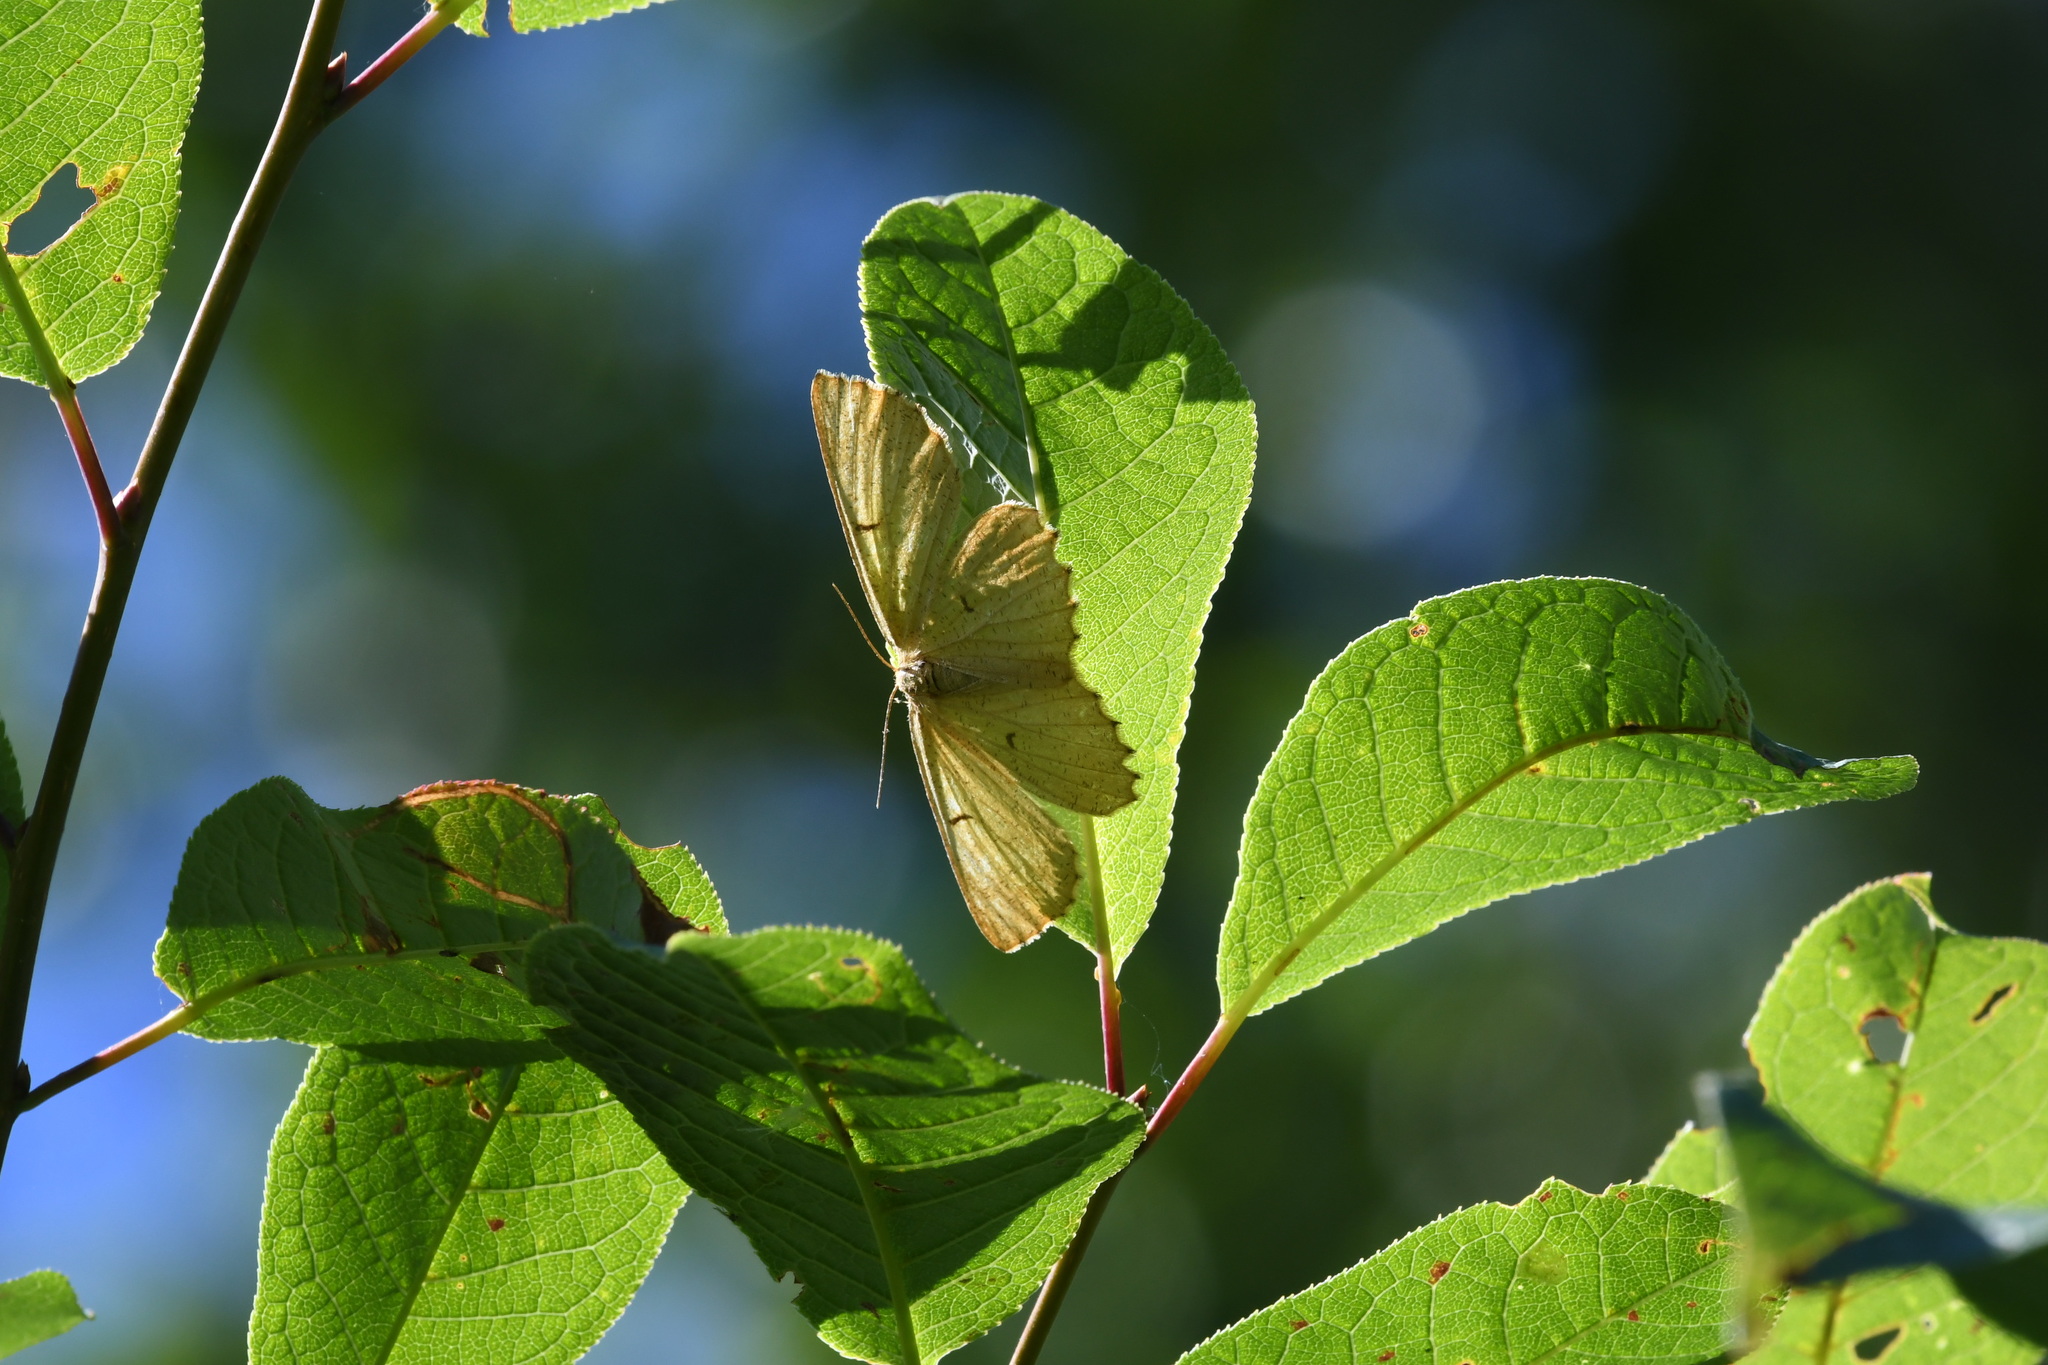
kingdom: Animalia
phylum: Arthropoda
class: Insecta
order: Lepidoptera
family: Geometridae
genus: Angerona
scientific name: Angerona prunaria
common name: Orange moth
